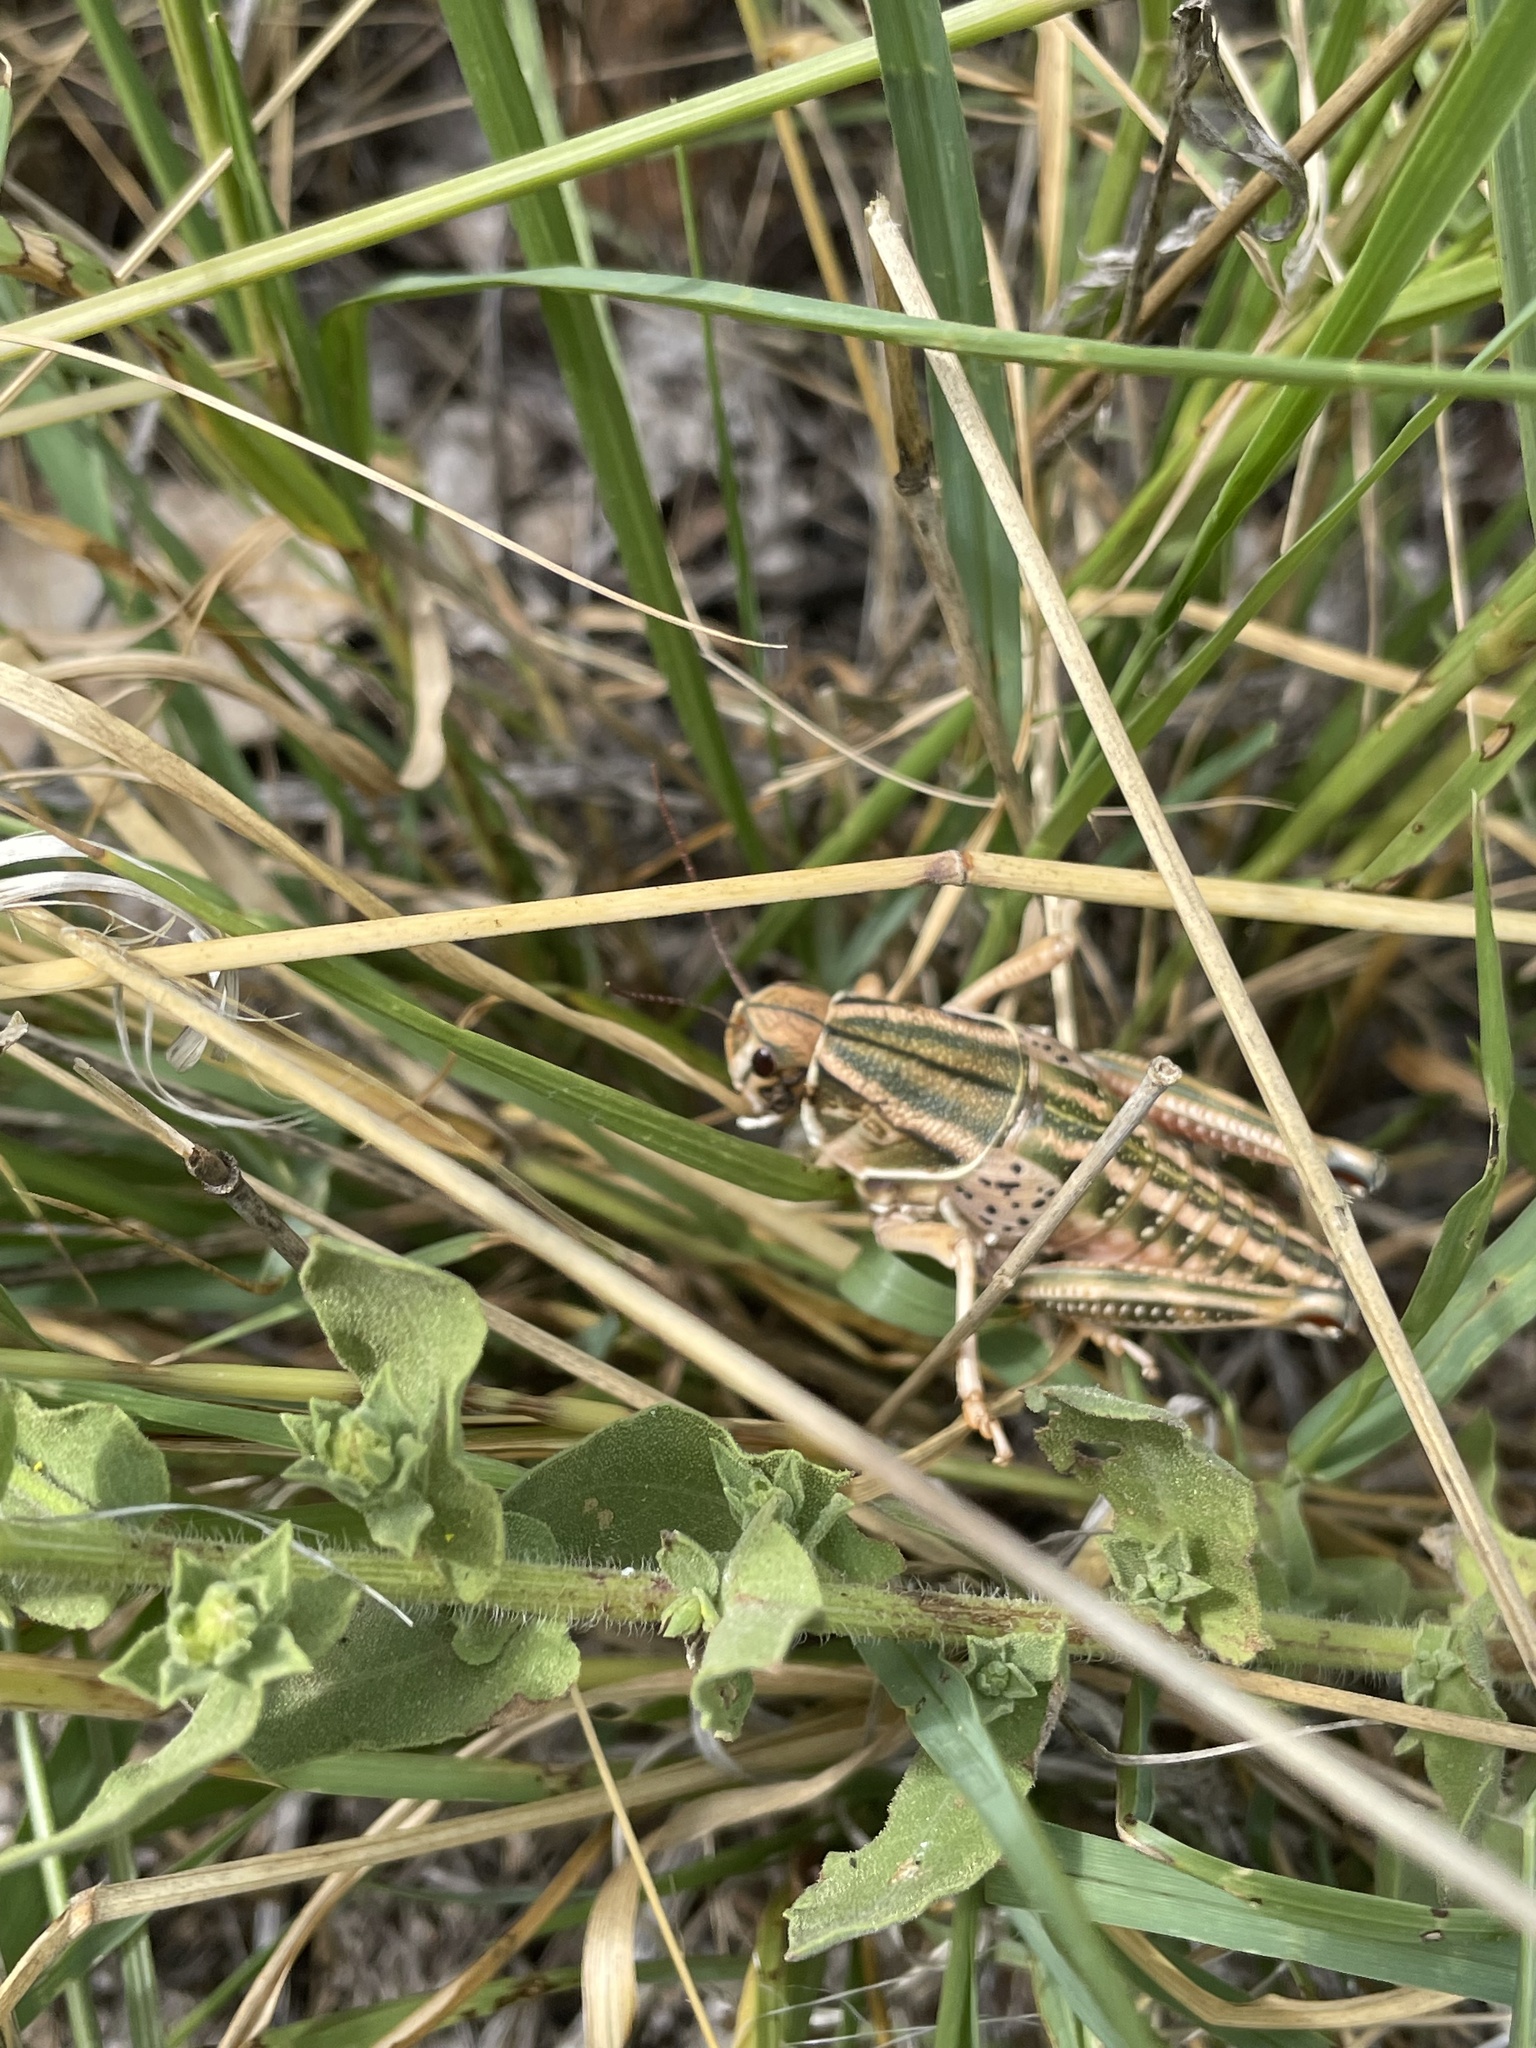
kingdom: Animalia
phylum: Arthropoda
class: Insecta
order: Orthoptera
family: Romaleidae
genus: Brachystola
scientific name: Brachystola magna
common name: Plains lubber grasshopper
